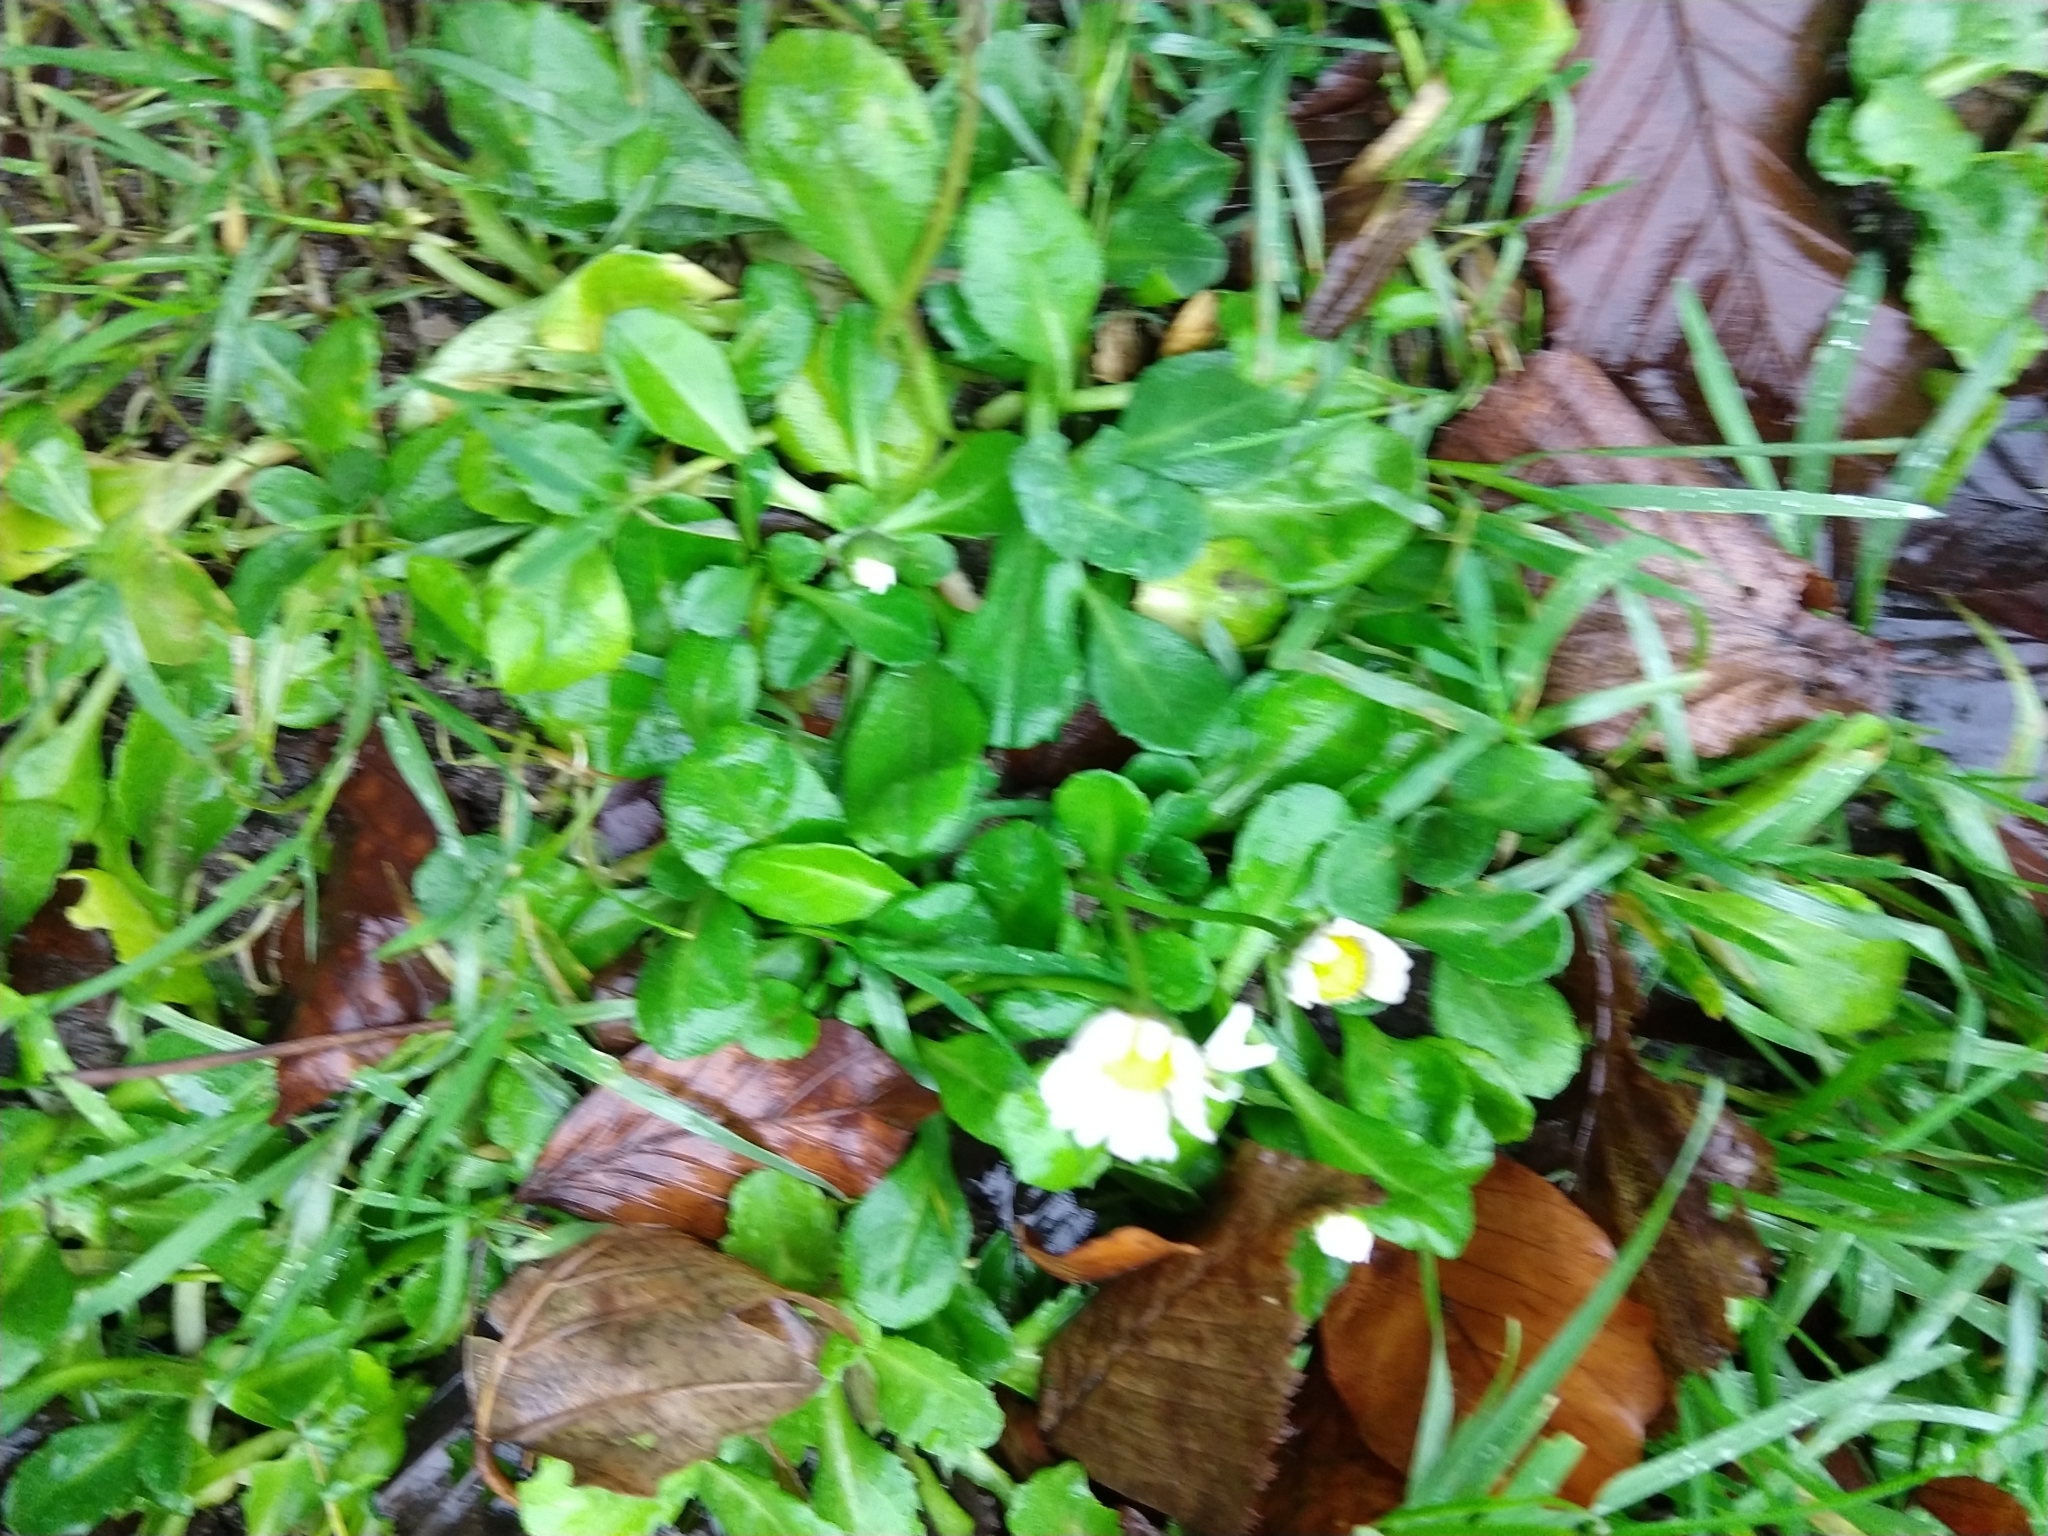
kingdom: Plantae
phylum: Tracheophyta
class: Magnoliopsida
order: Asterales
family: Asteraceae
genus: Bellis
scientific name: Bellis perennis
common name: Lawndaisy
